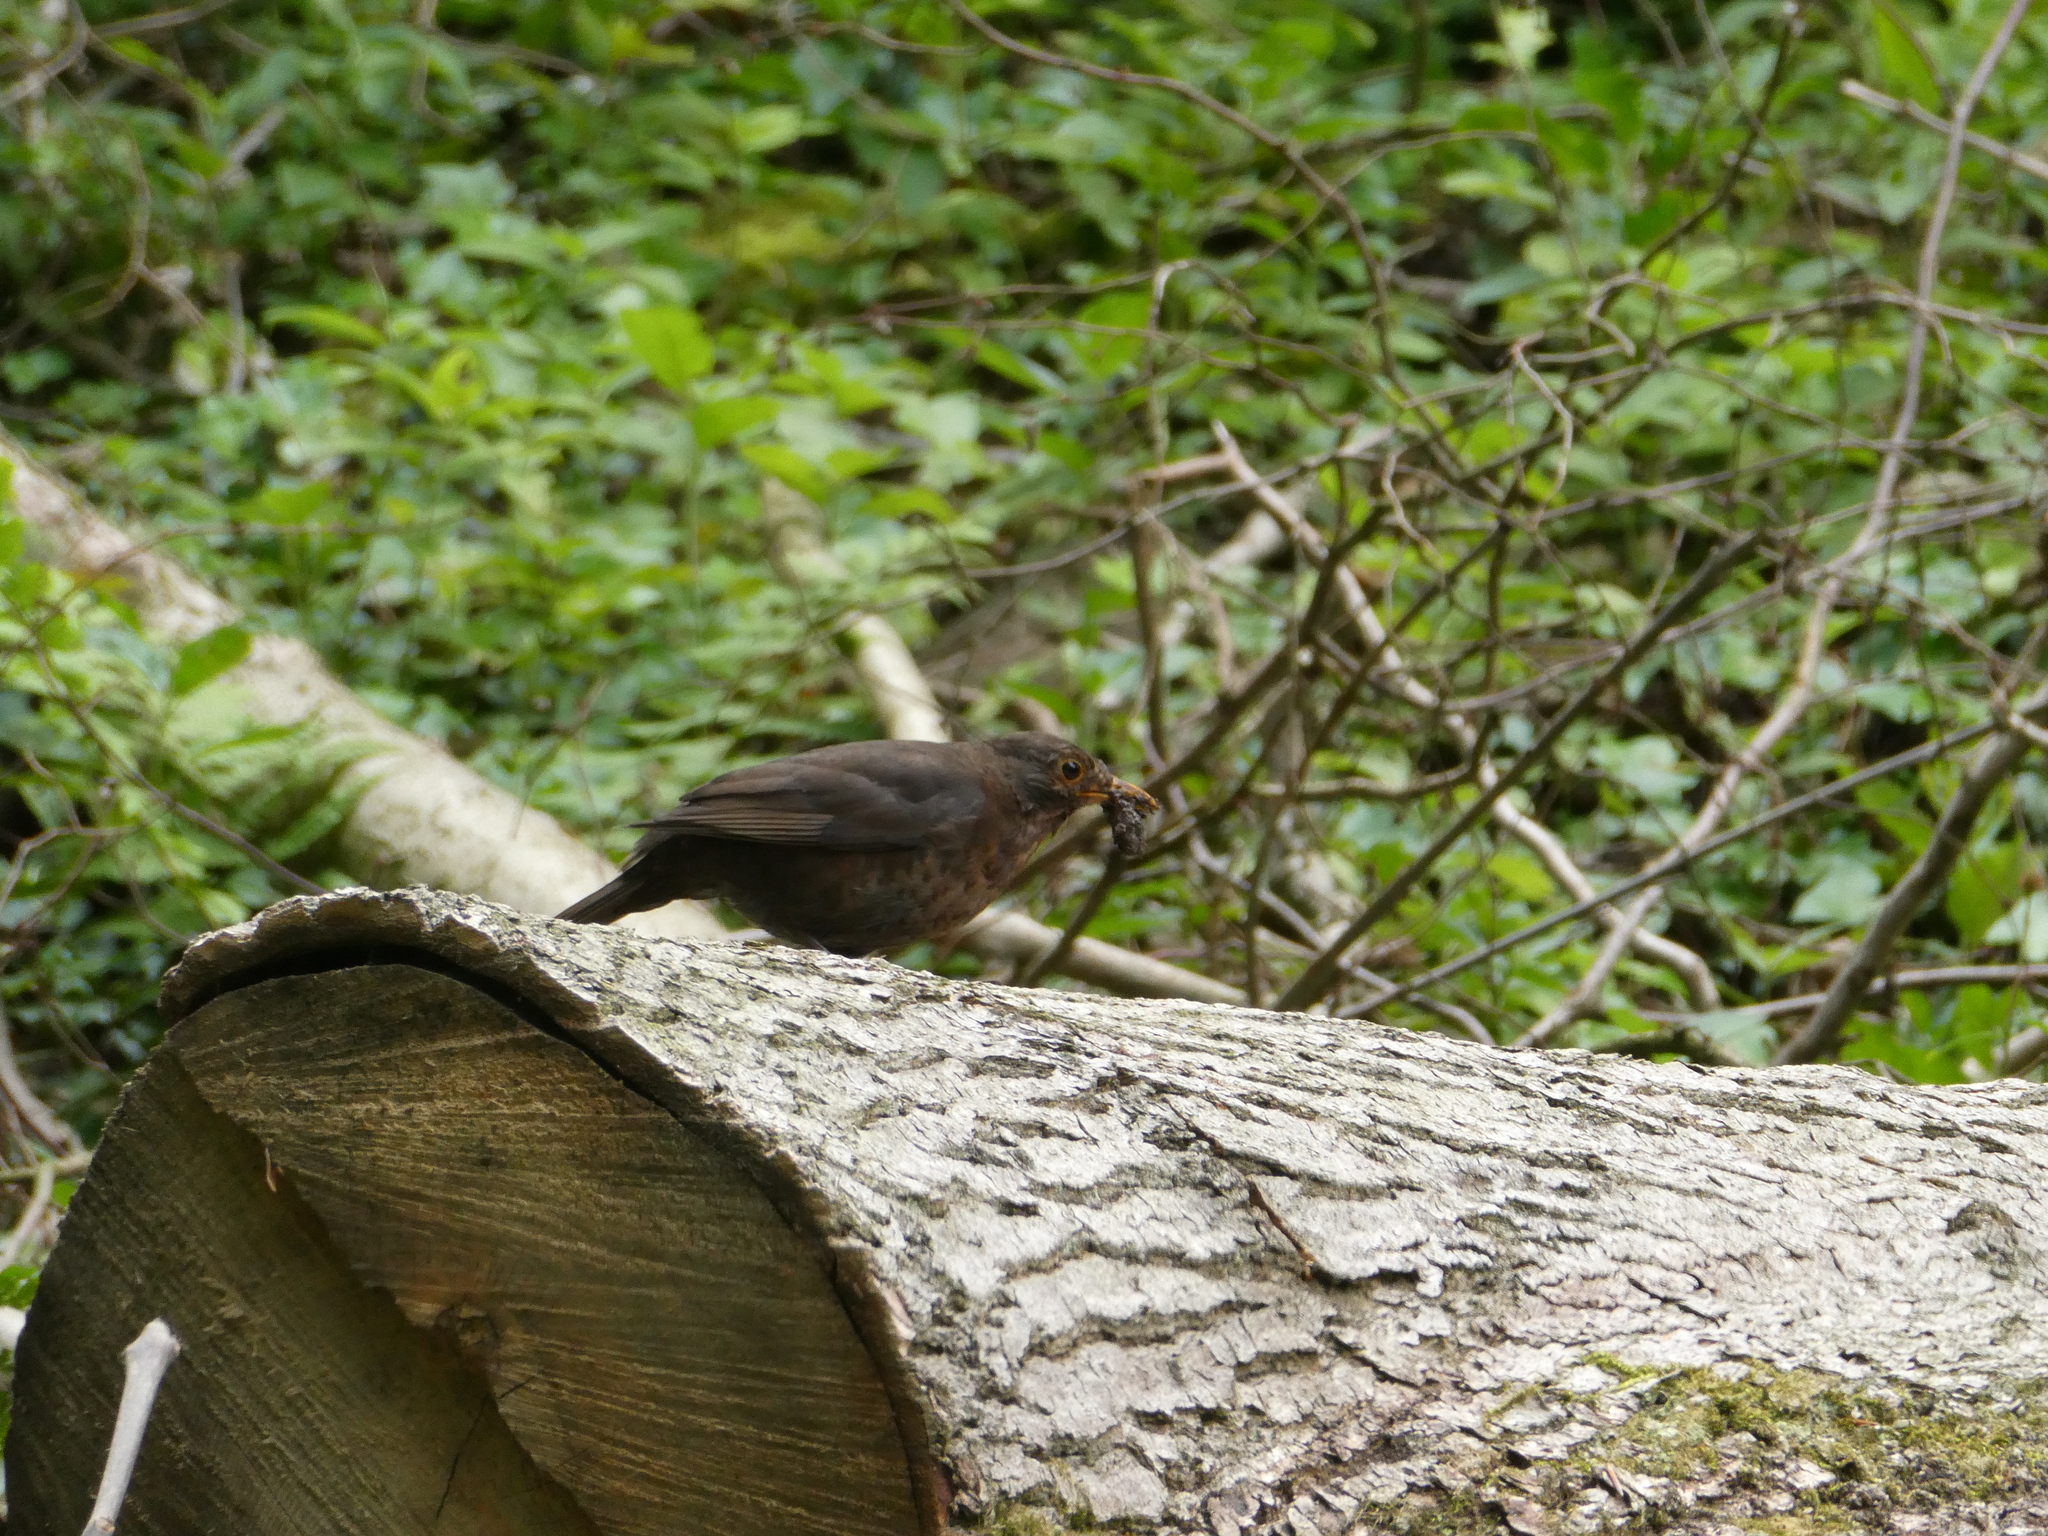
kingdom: Animalia
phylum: Chordata
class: Aves
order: Passeriformes
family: Turdidae
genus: Turdus
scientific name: Turdus merula
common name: Common blackbird
